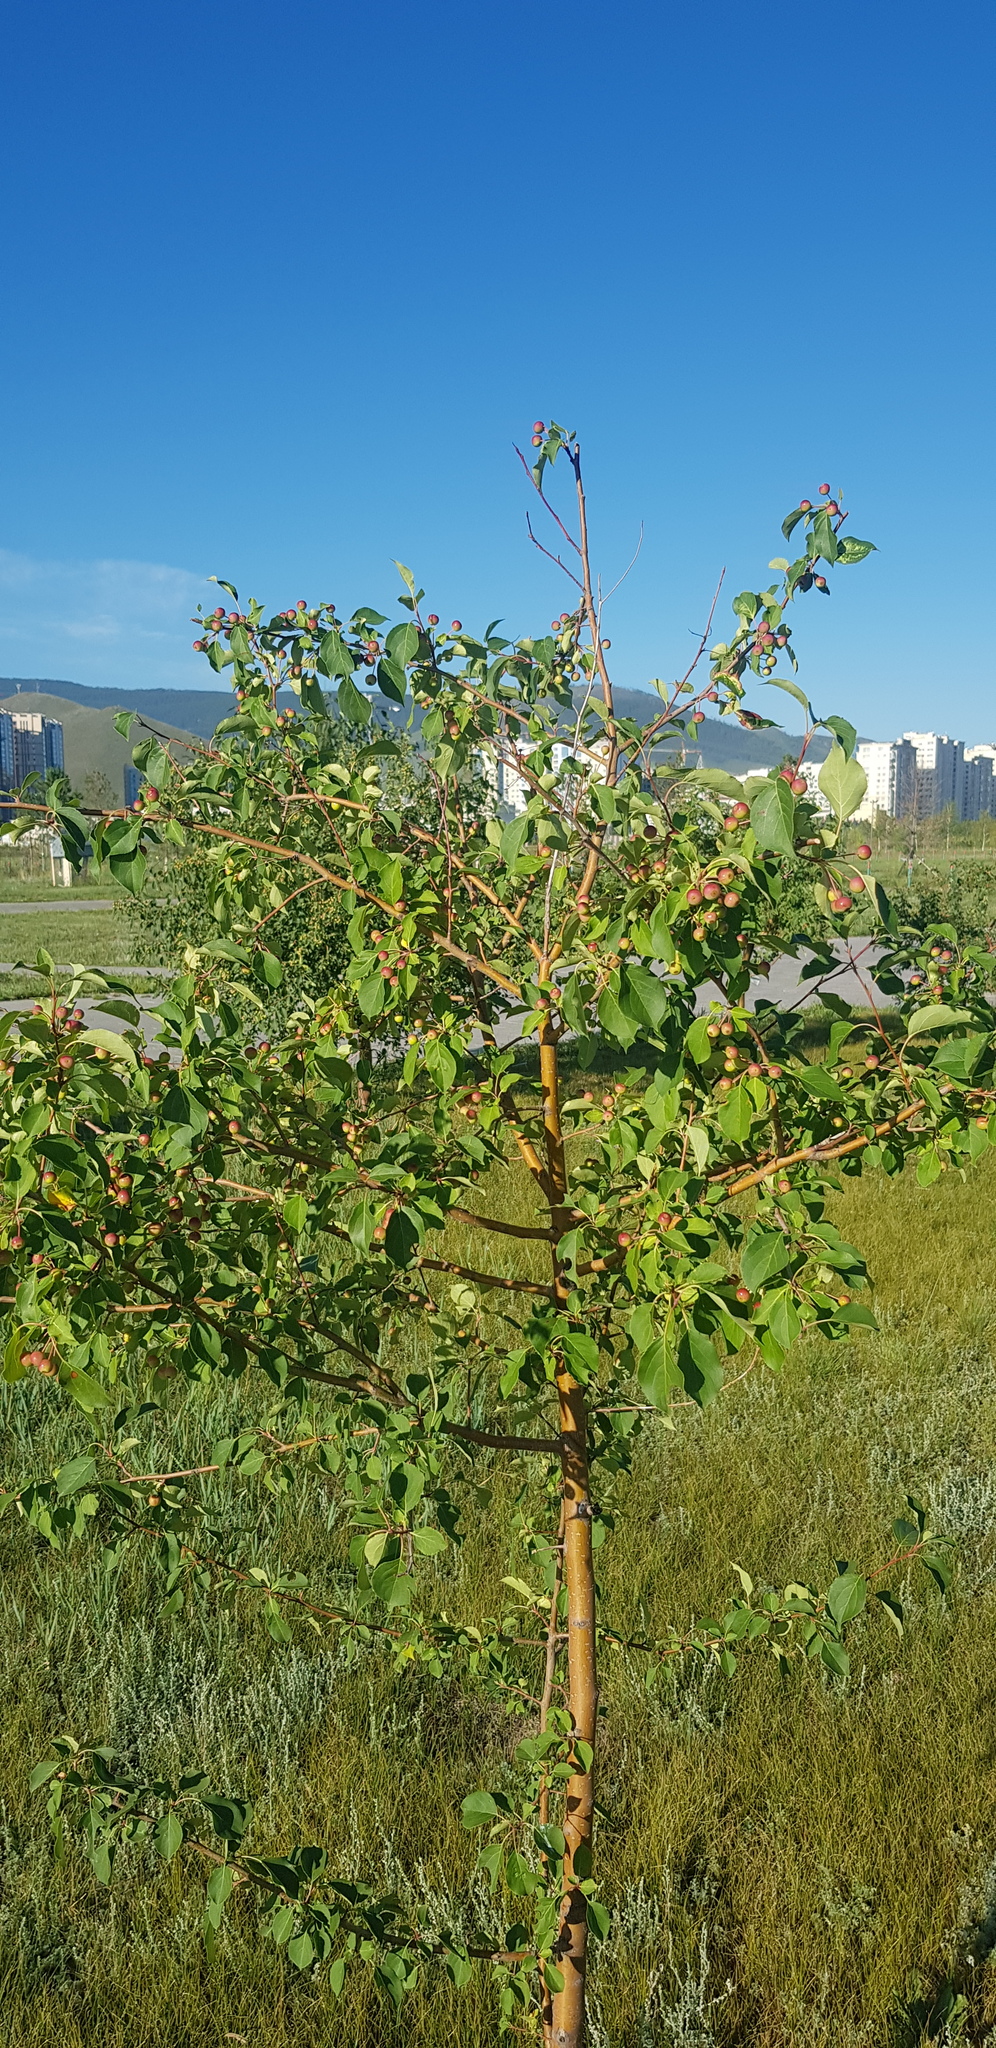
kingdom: Plantae
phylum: Tracheophyta
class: Magnoliopsida
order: Gentianales
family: Rubiaceae
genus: Galium
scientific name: Galium verum
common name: Lady's bedstraw
